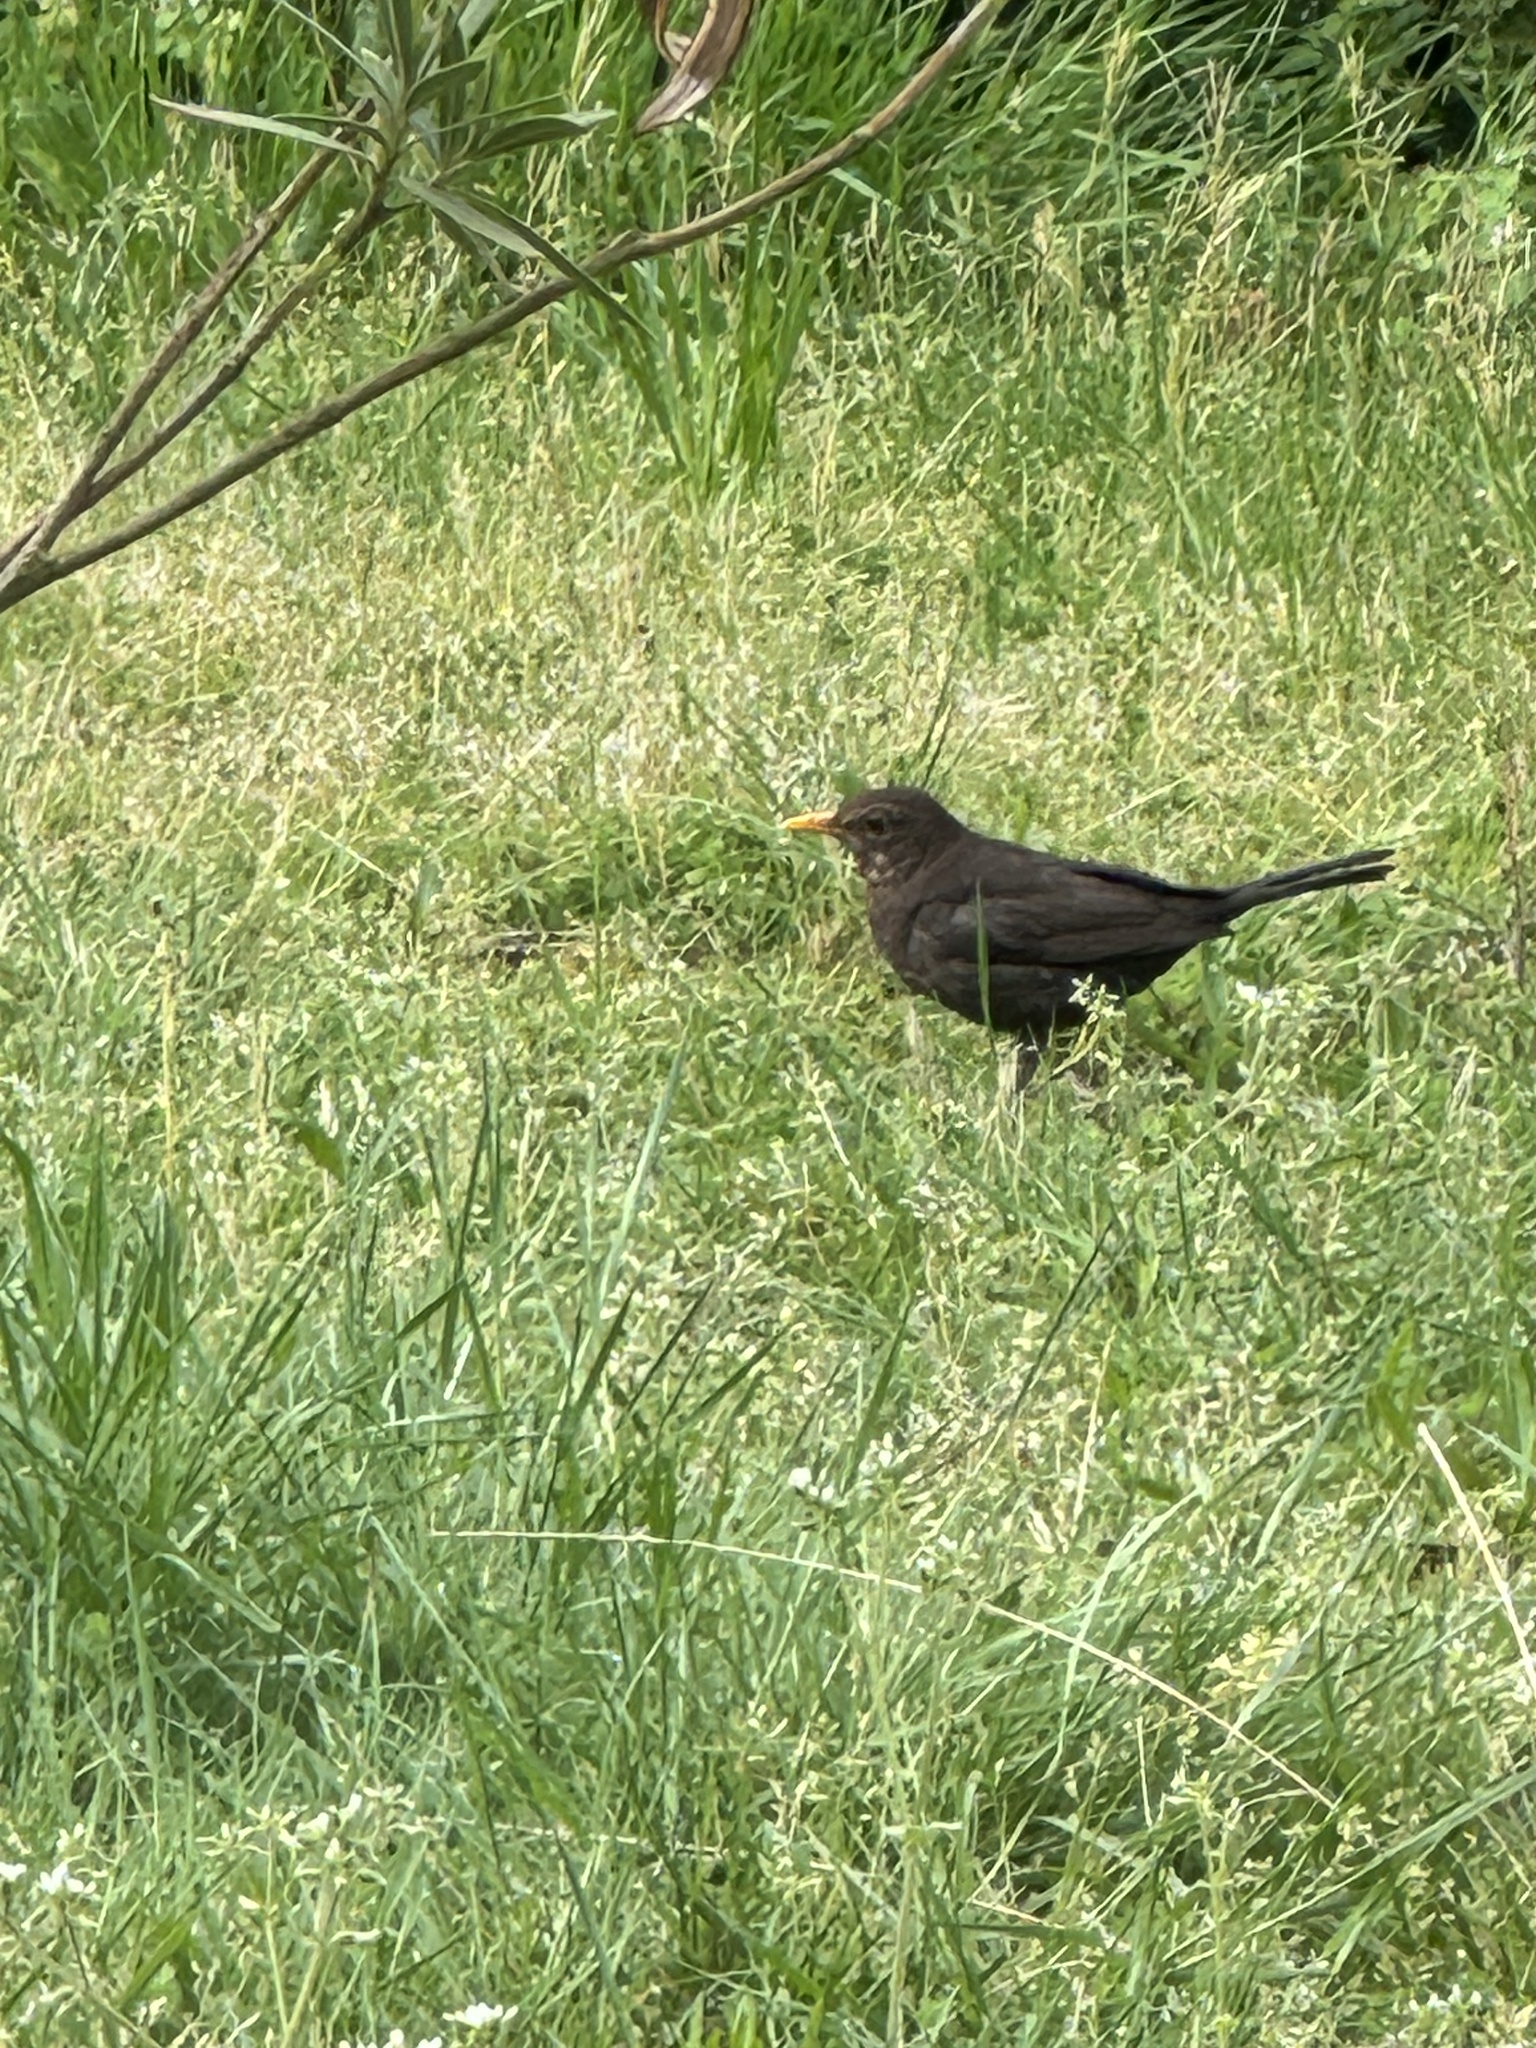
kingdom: Animalia
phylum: Chordata
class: Aves
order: Passeriformes
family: Turdidae
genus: Turdus
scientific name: Turdus merula
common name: Common blackbird
